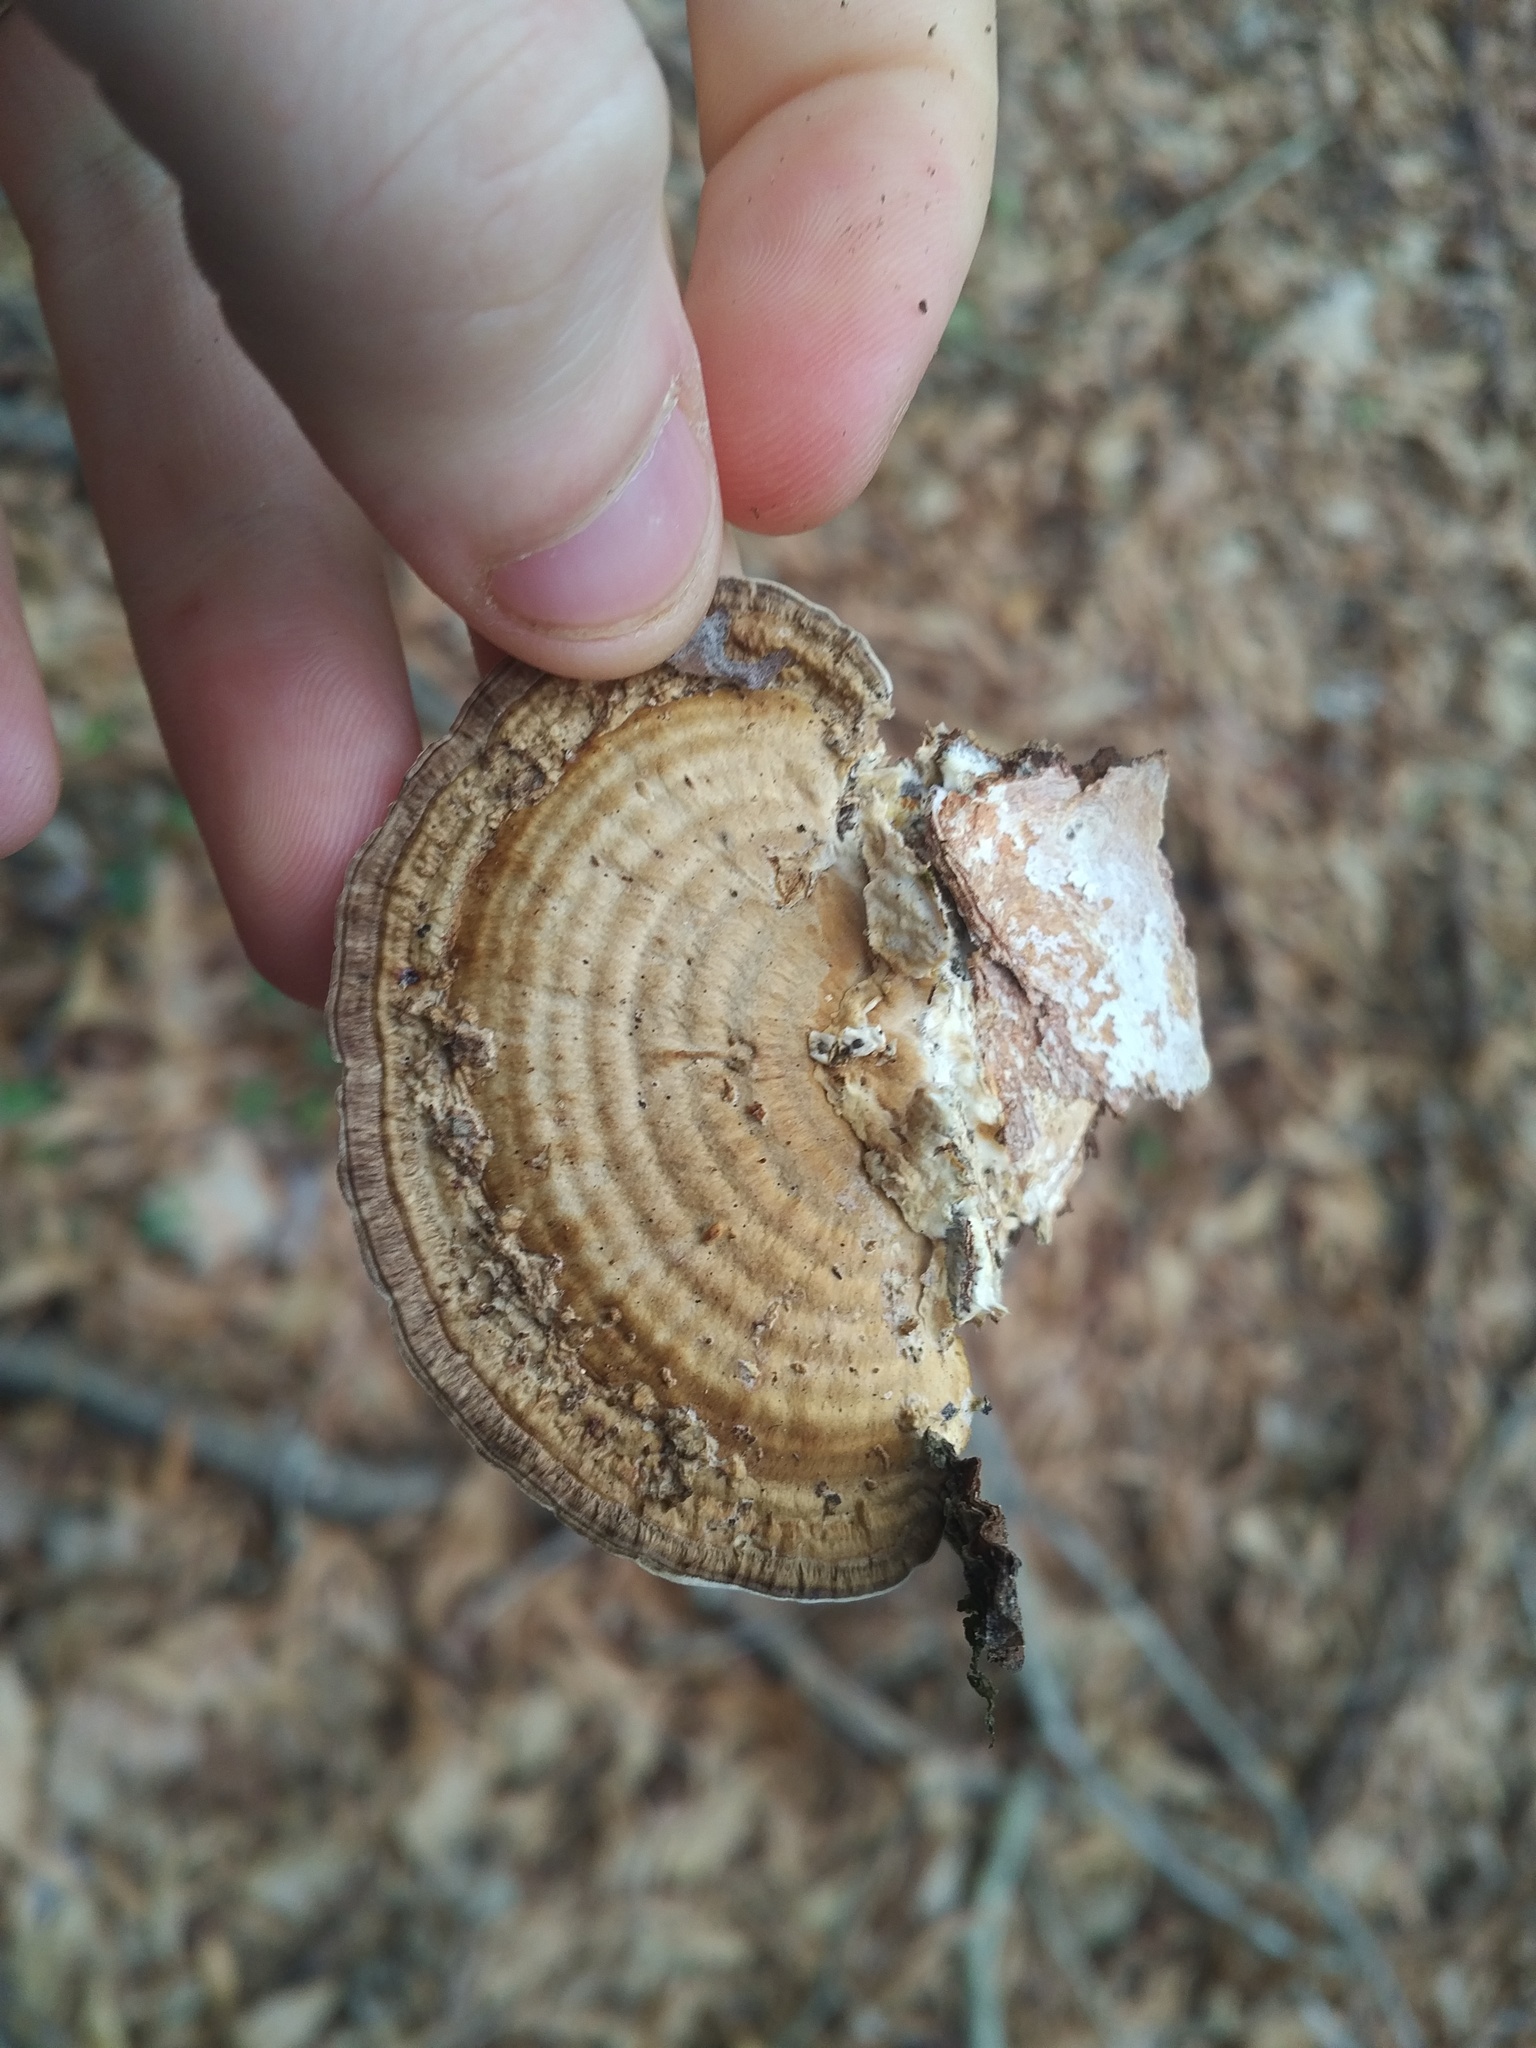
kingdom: Fungi
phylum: Basidiomycota
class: Agaricomycetes
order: Polyporales
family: Polyporaceae
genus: Daedaleopsis
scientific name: Daedaleopsis confragosa
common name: Blushing bracket
